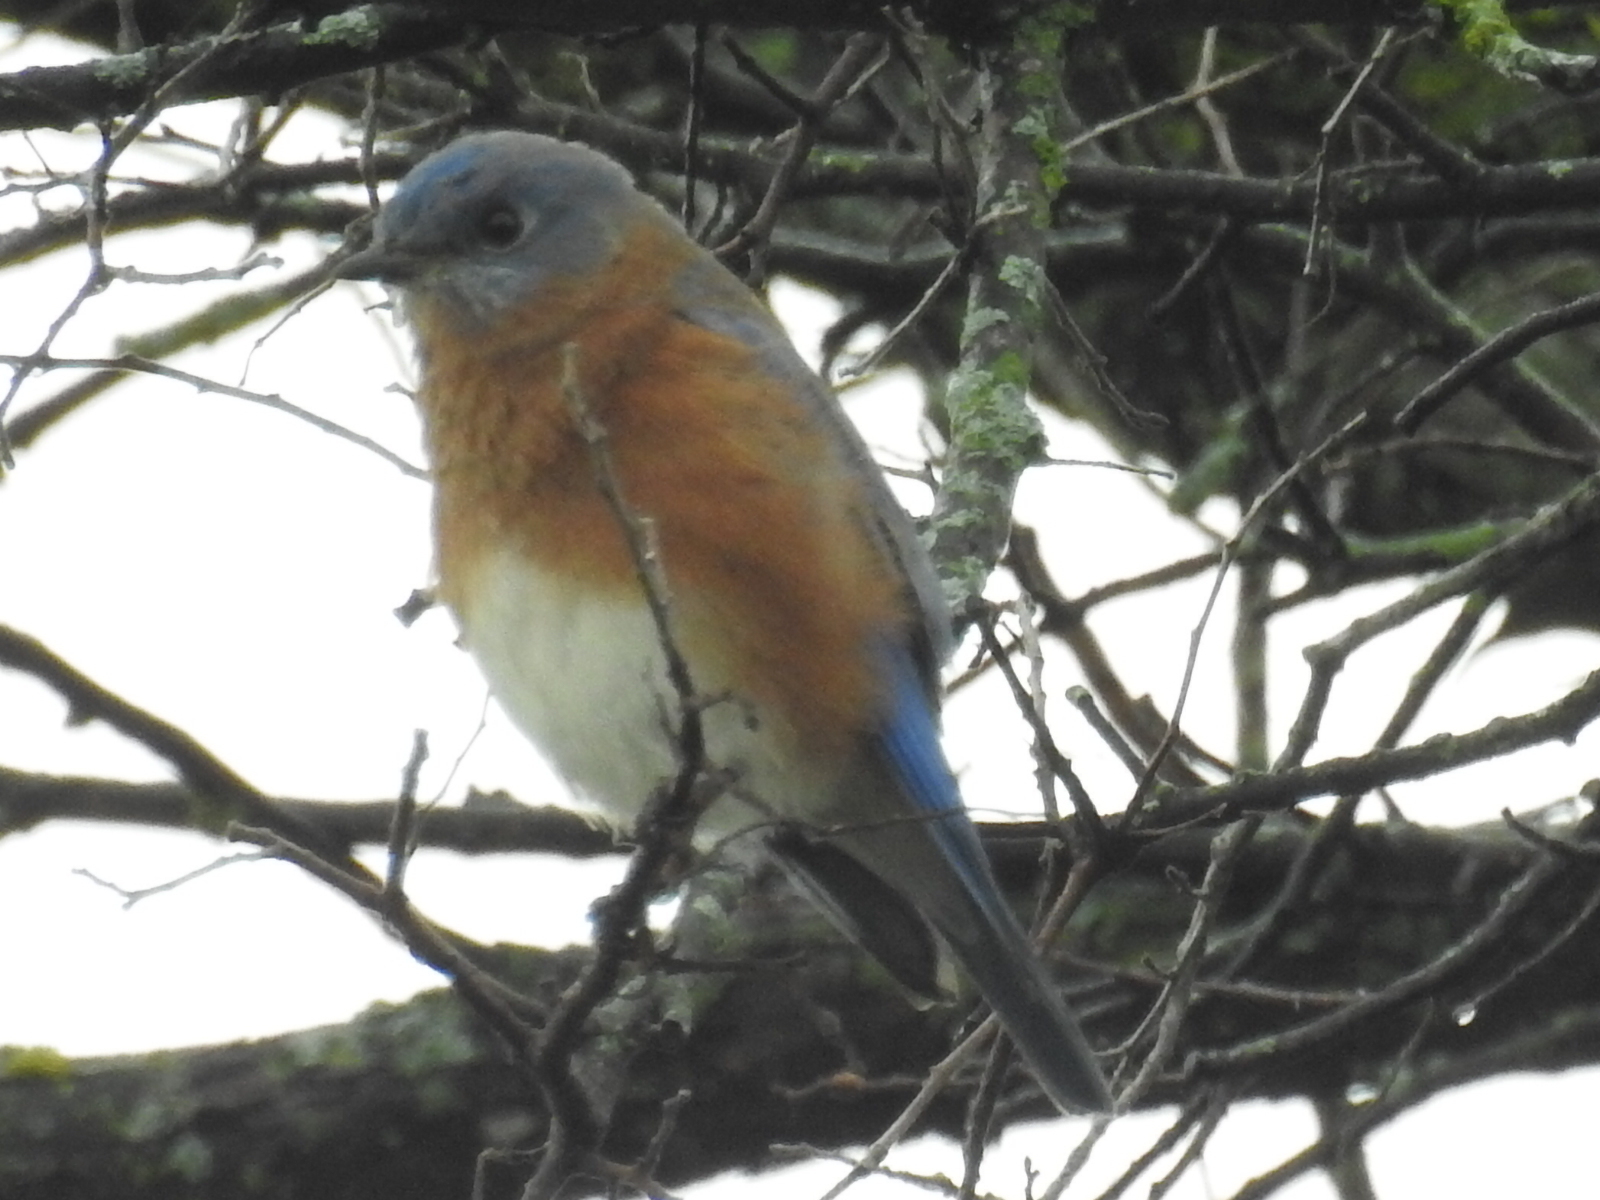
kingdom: Animalia
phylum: Chordata
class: Aves
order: Passeriformes
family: Turdidae
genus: Sialia
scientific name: Sialia sialis
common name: Eastern bluebird
